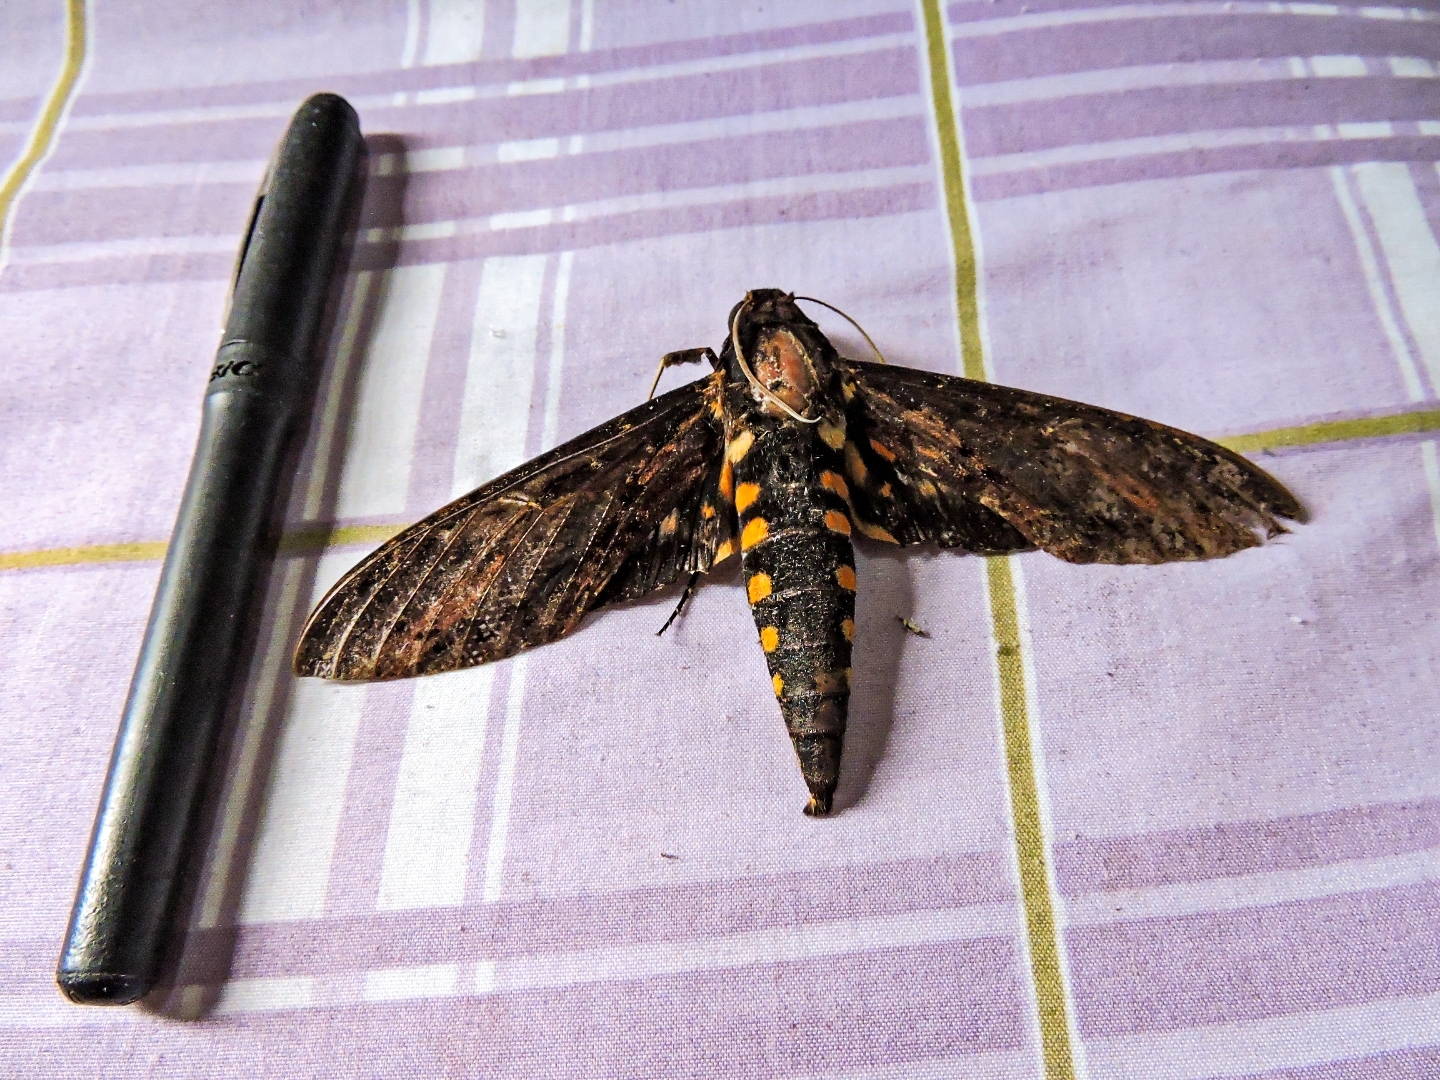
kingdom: Animalia
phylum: Arthropoda
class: Insecta
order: Lepidoptera
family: Sphingidae
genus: Neococytius
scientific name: Neococytius cluentius
